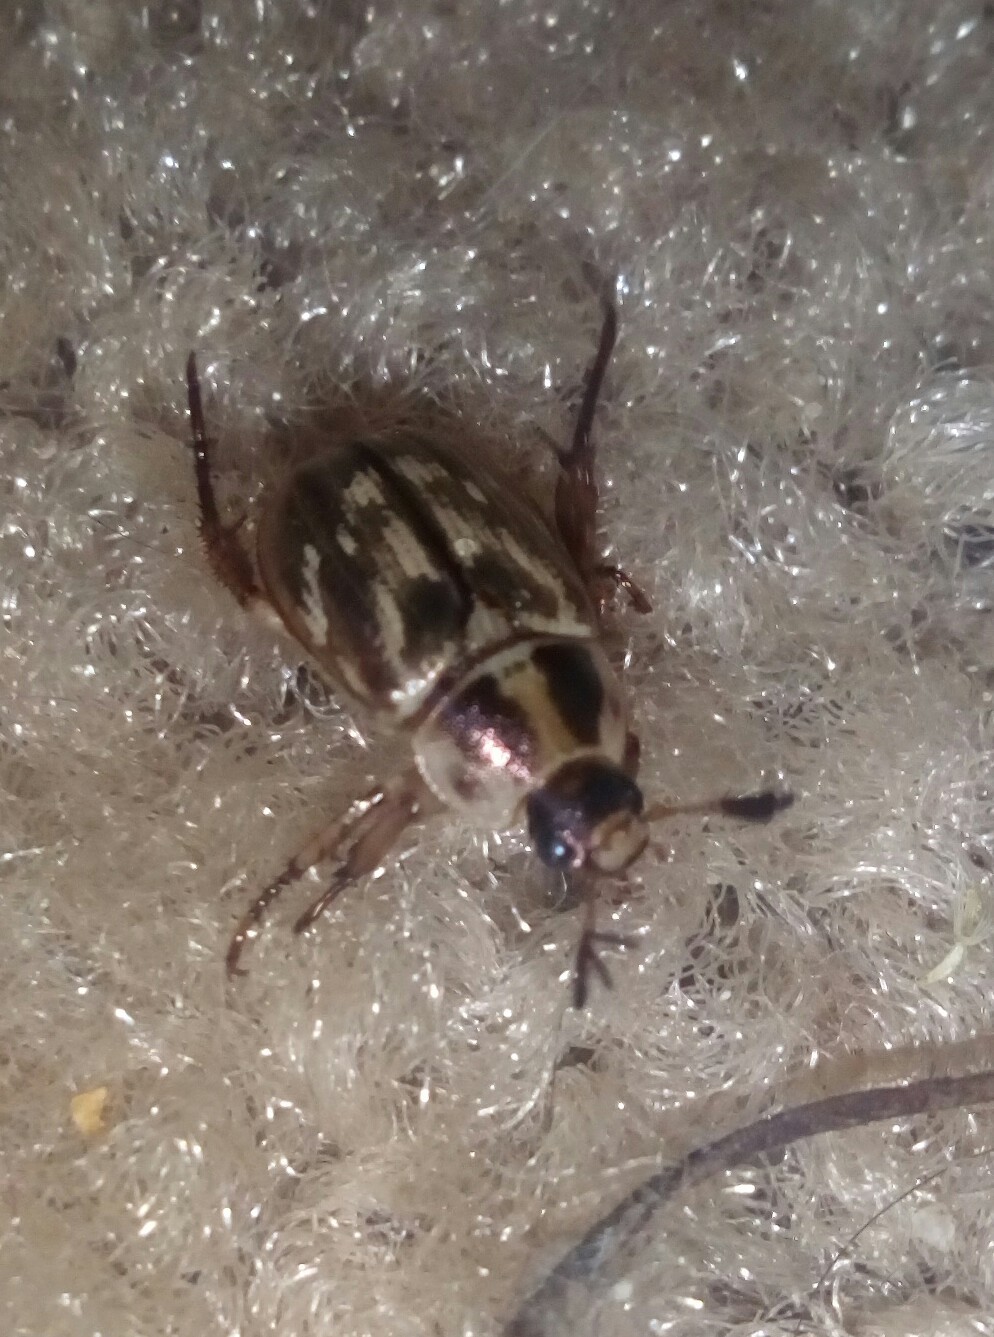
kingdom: Animalia
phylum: Arthropoda
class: Insecta
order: Coleoptera
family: Scarabaeidae
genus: Exomala
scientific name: Exomala orientalis
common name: Oriental beetle
